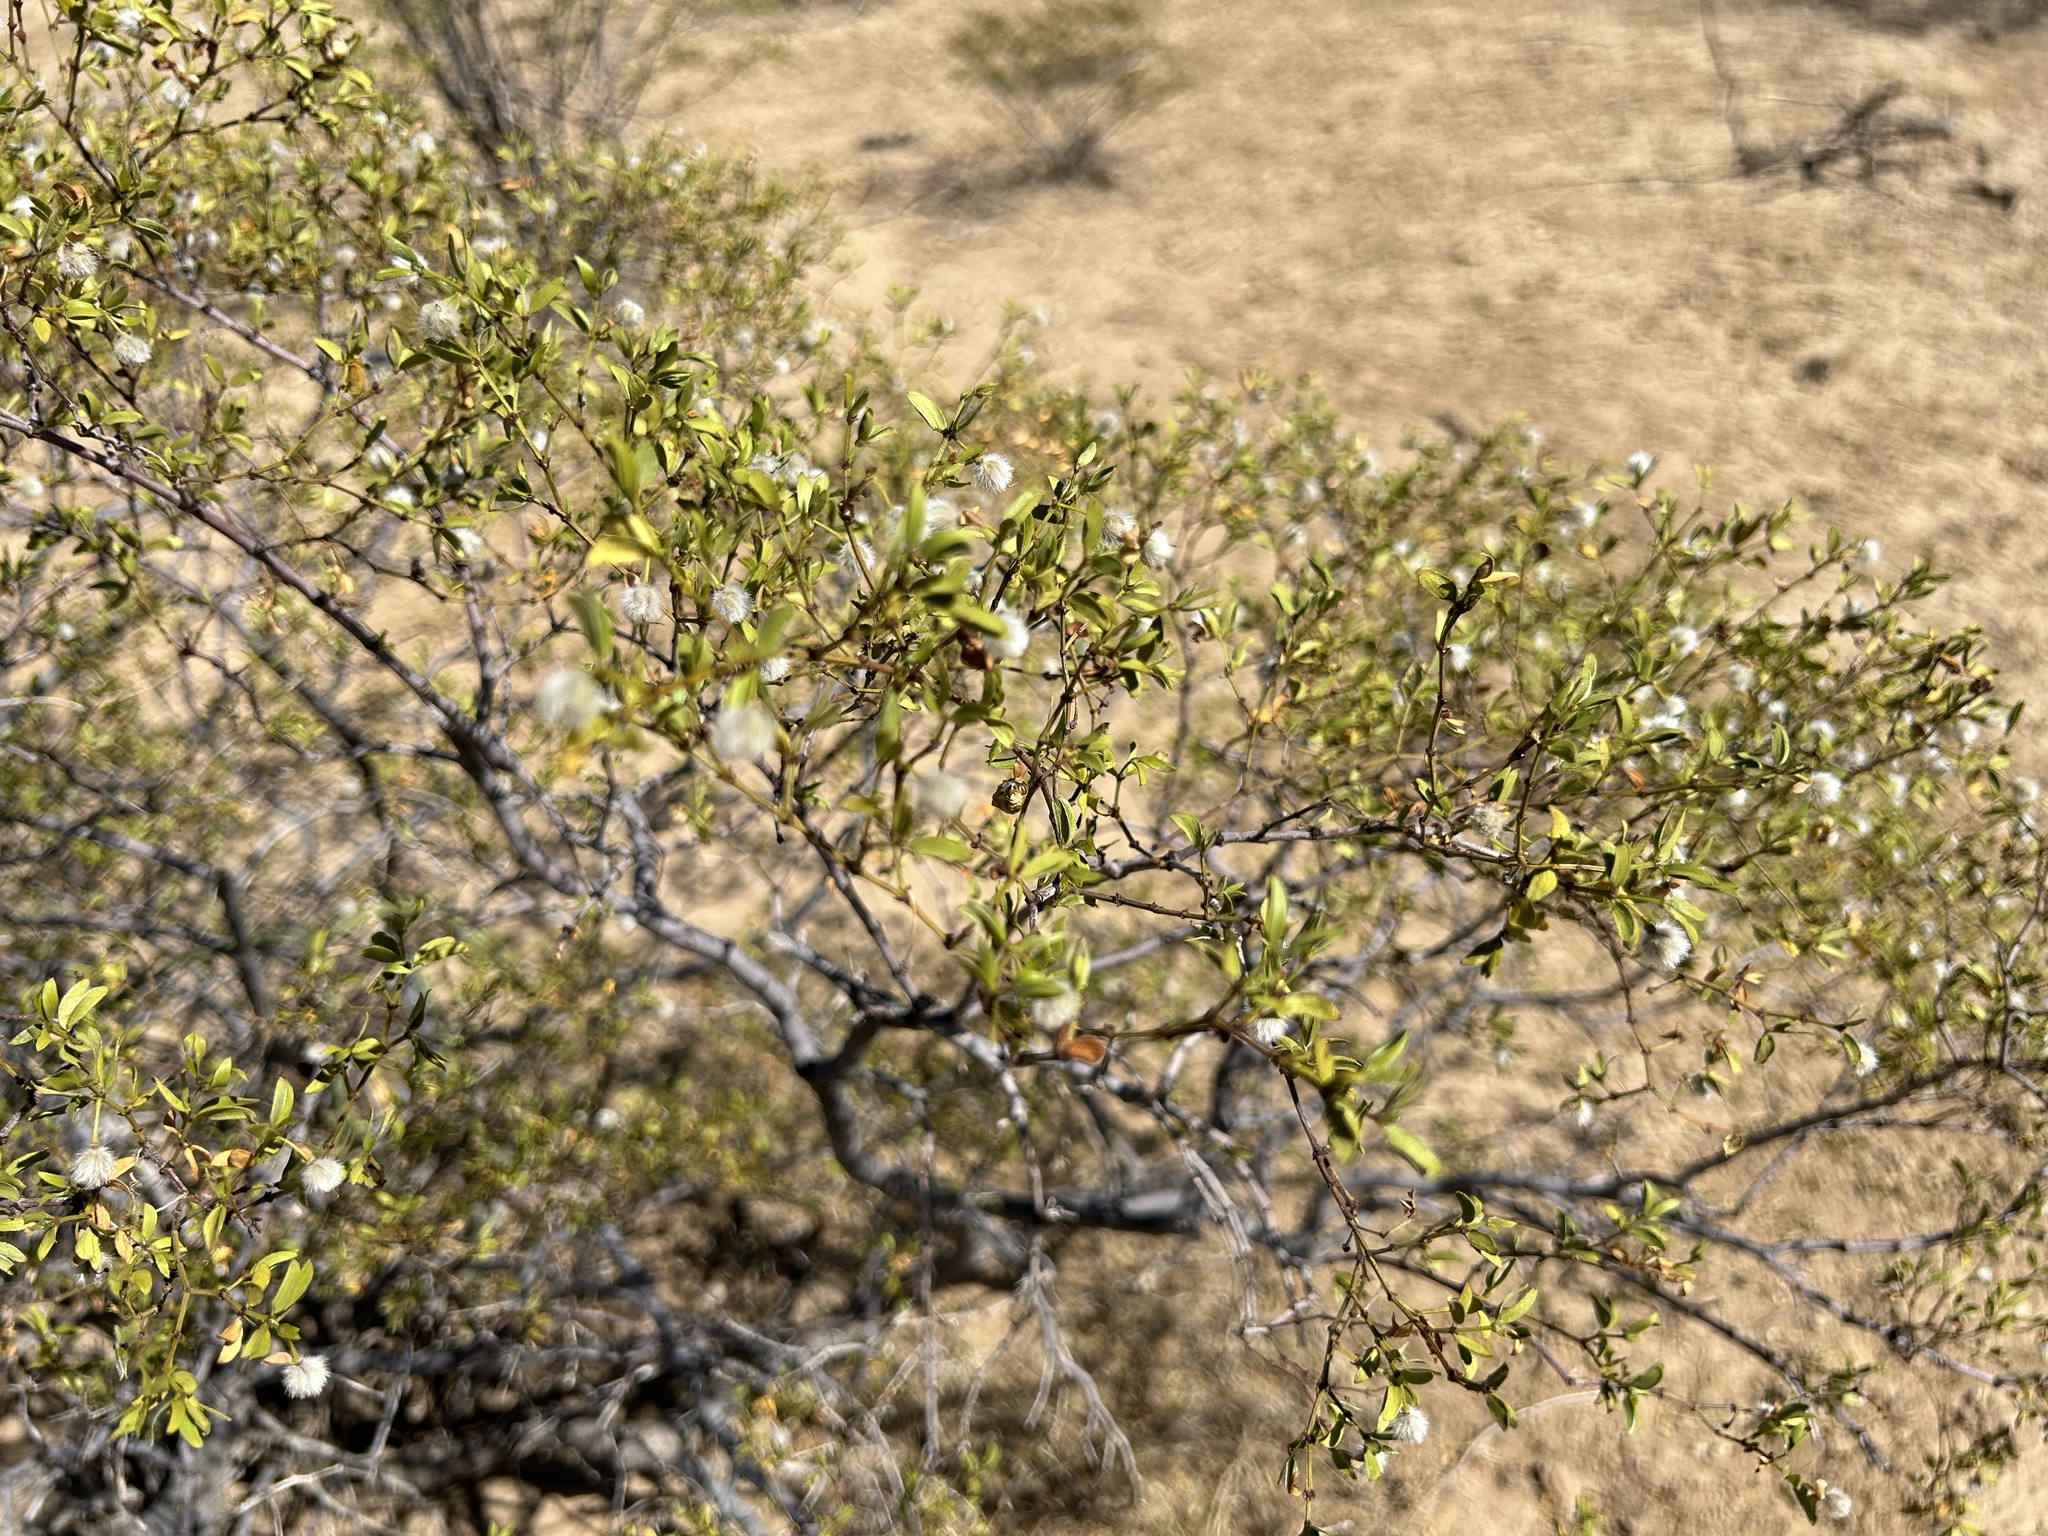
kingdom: Plantae
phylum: Tracheophyta
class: Magnoliopsida
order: Zygophyllales
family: Zygophyllaceae
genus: Larrea
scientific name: Larrea tridentata
